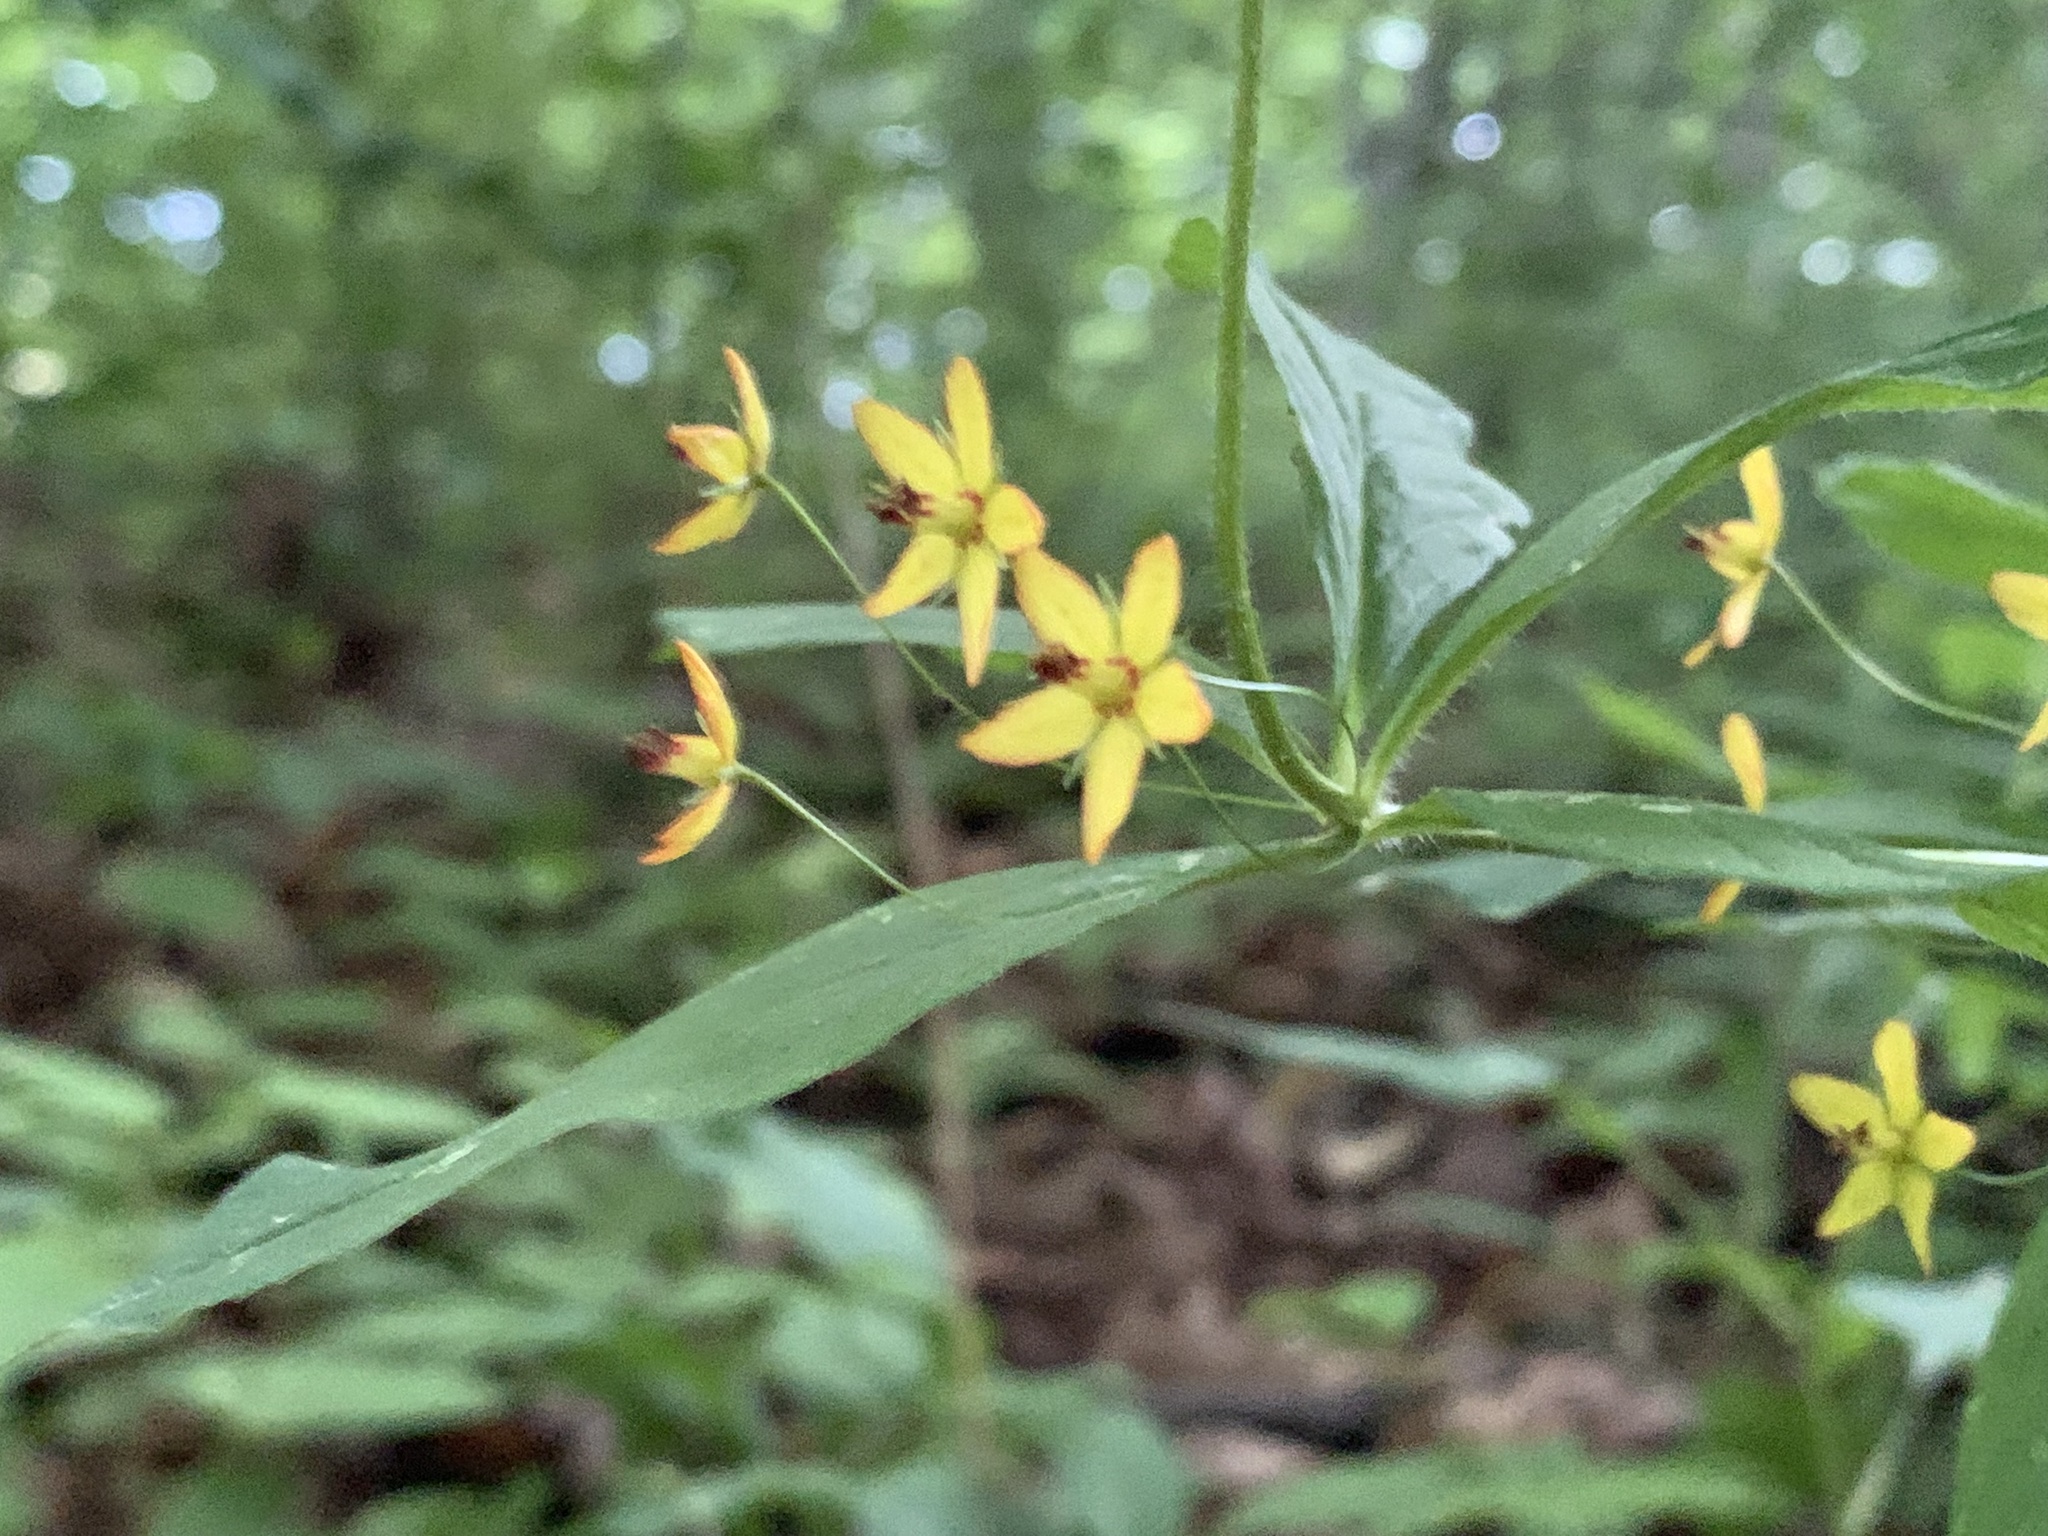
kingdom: Plantae
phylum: Tracheophyta
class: Magnoliopsida
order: Ericales
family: Primulaceae
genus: Lysimachia
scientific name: Lysimachia quadrifolia
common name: Whorled loosestrife
